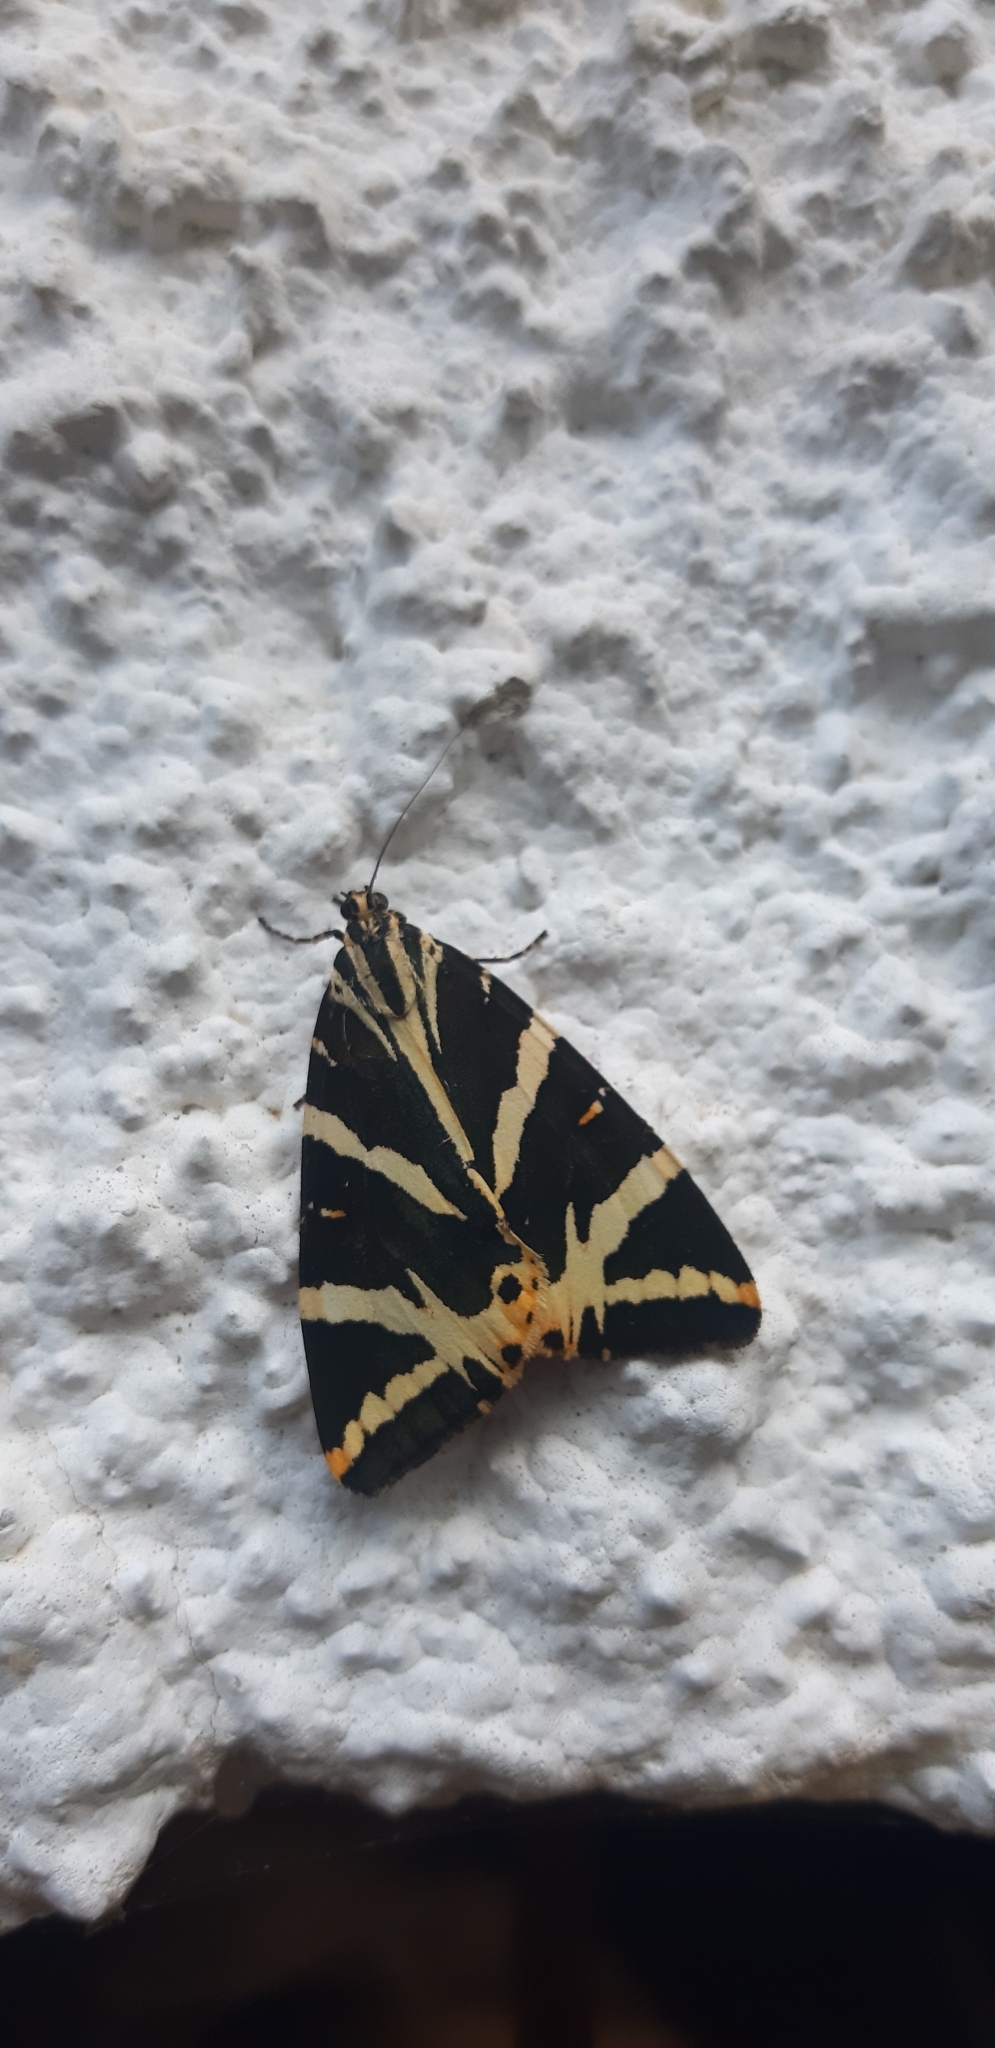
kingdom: Animalia
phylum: Arthropoda
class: Insecta
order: Lepidoptera
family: Erebidae
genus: Euplagia
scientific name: Euplagia quadripunctaria
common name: Jersey tiger
